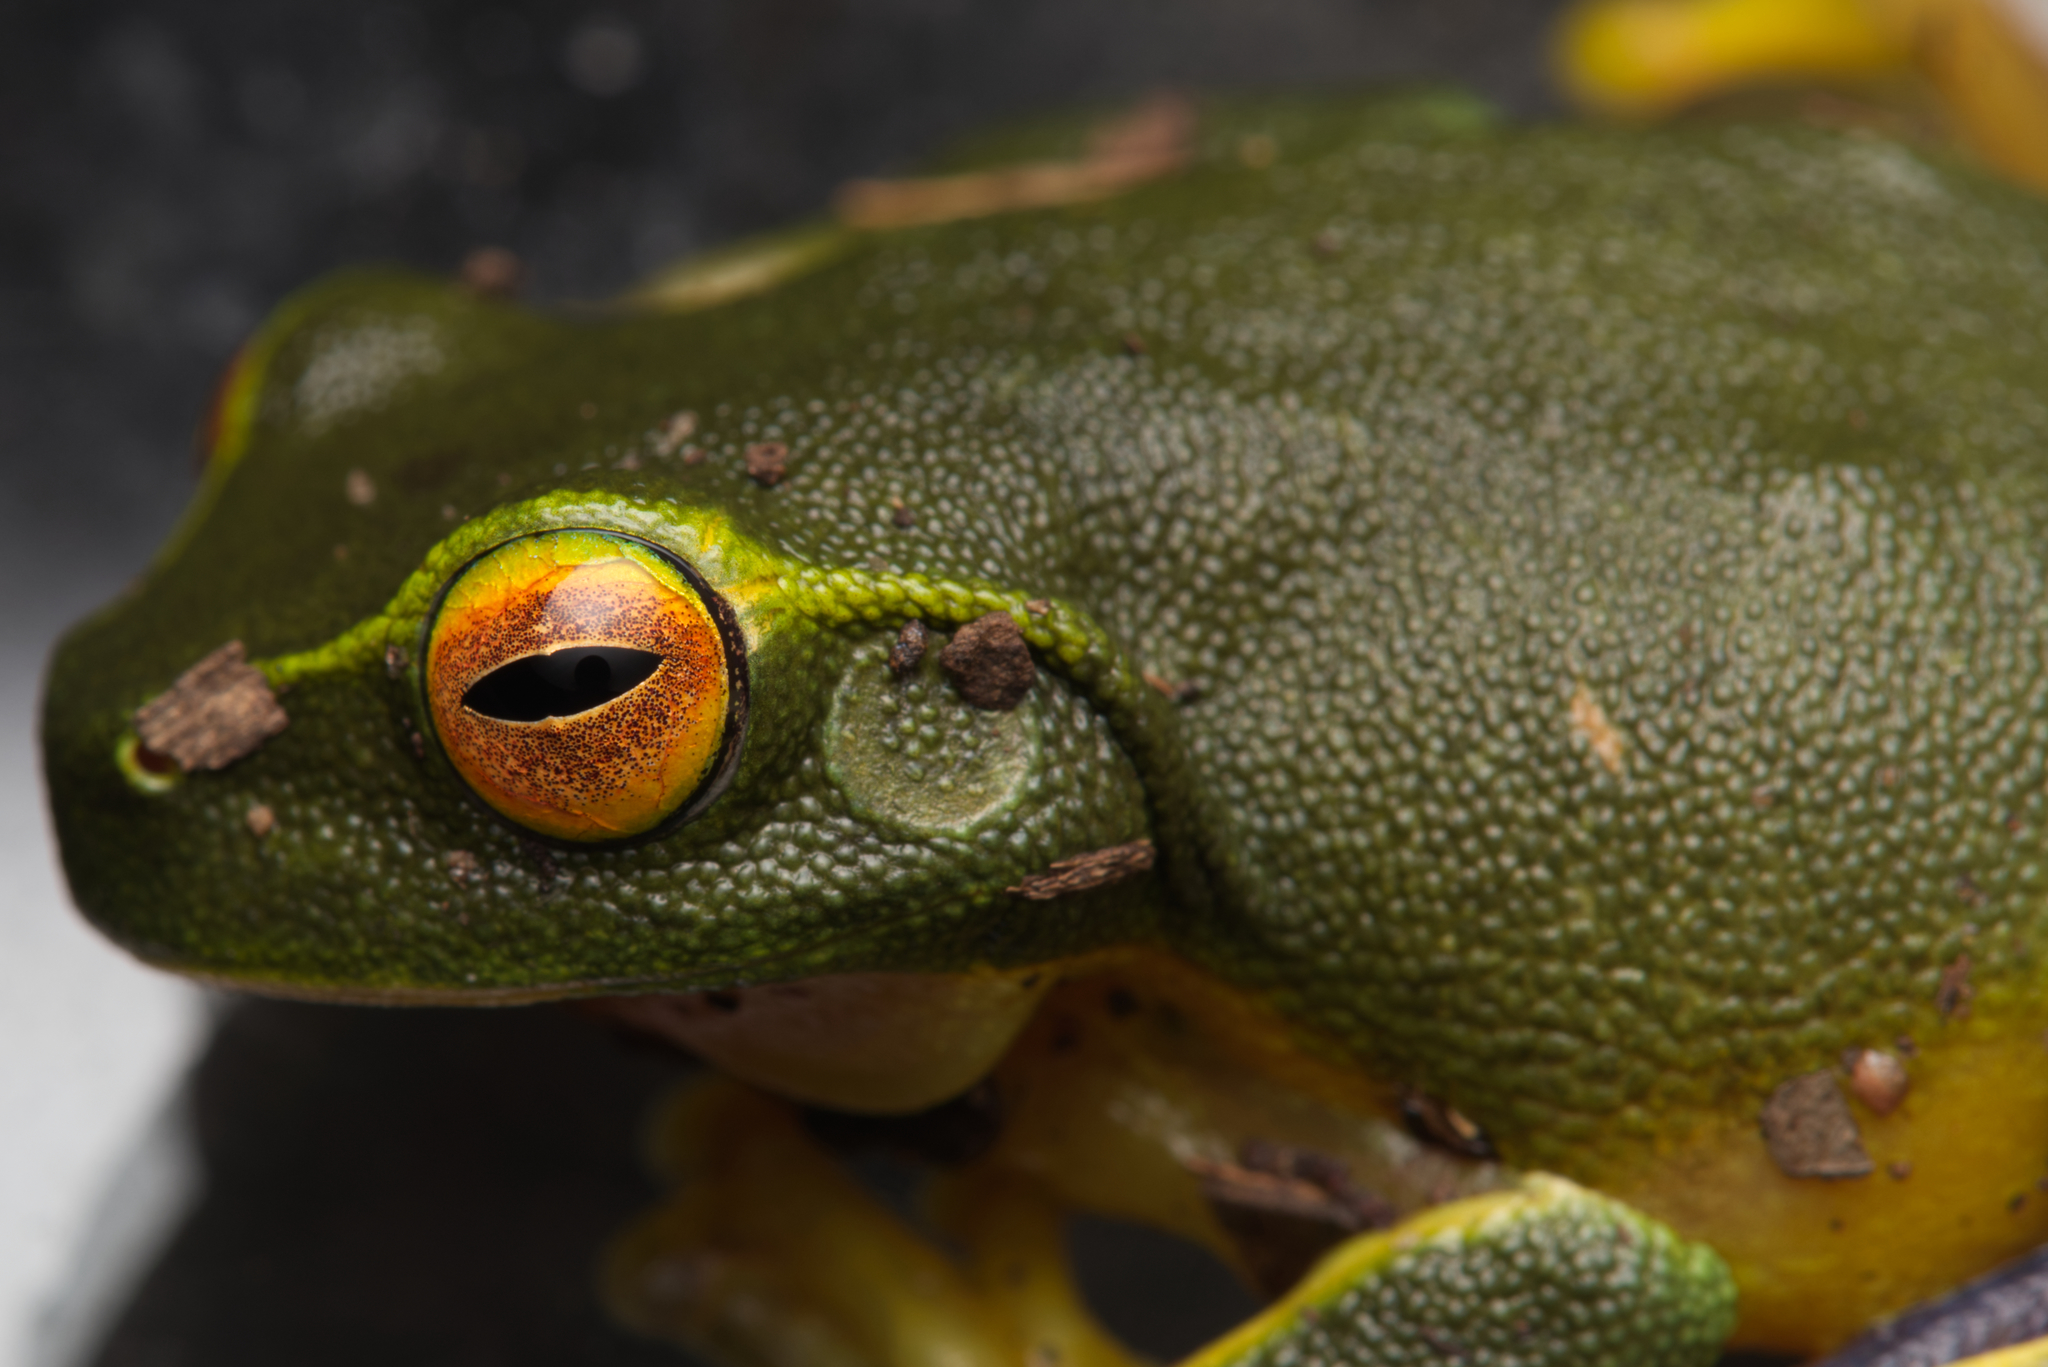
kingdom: Animalia
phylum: Chordata
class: Amphibia
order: Anura
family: Pelodryadidae
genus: Ranoidea
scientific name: Ranoidea gracilenta
